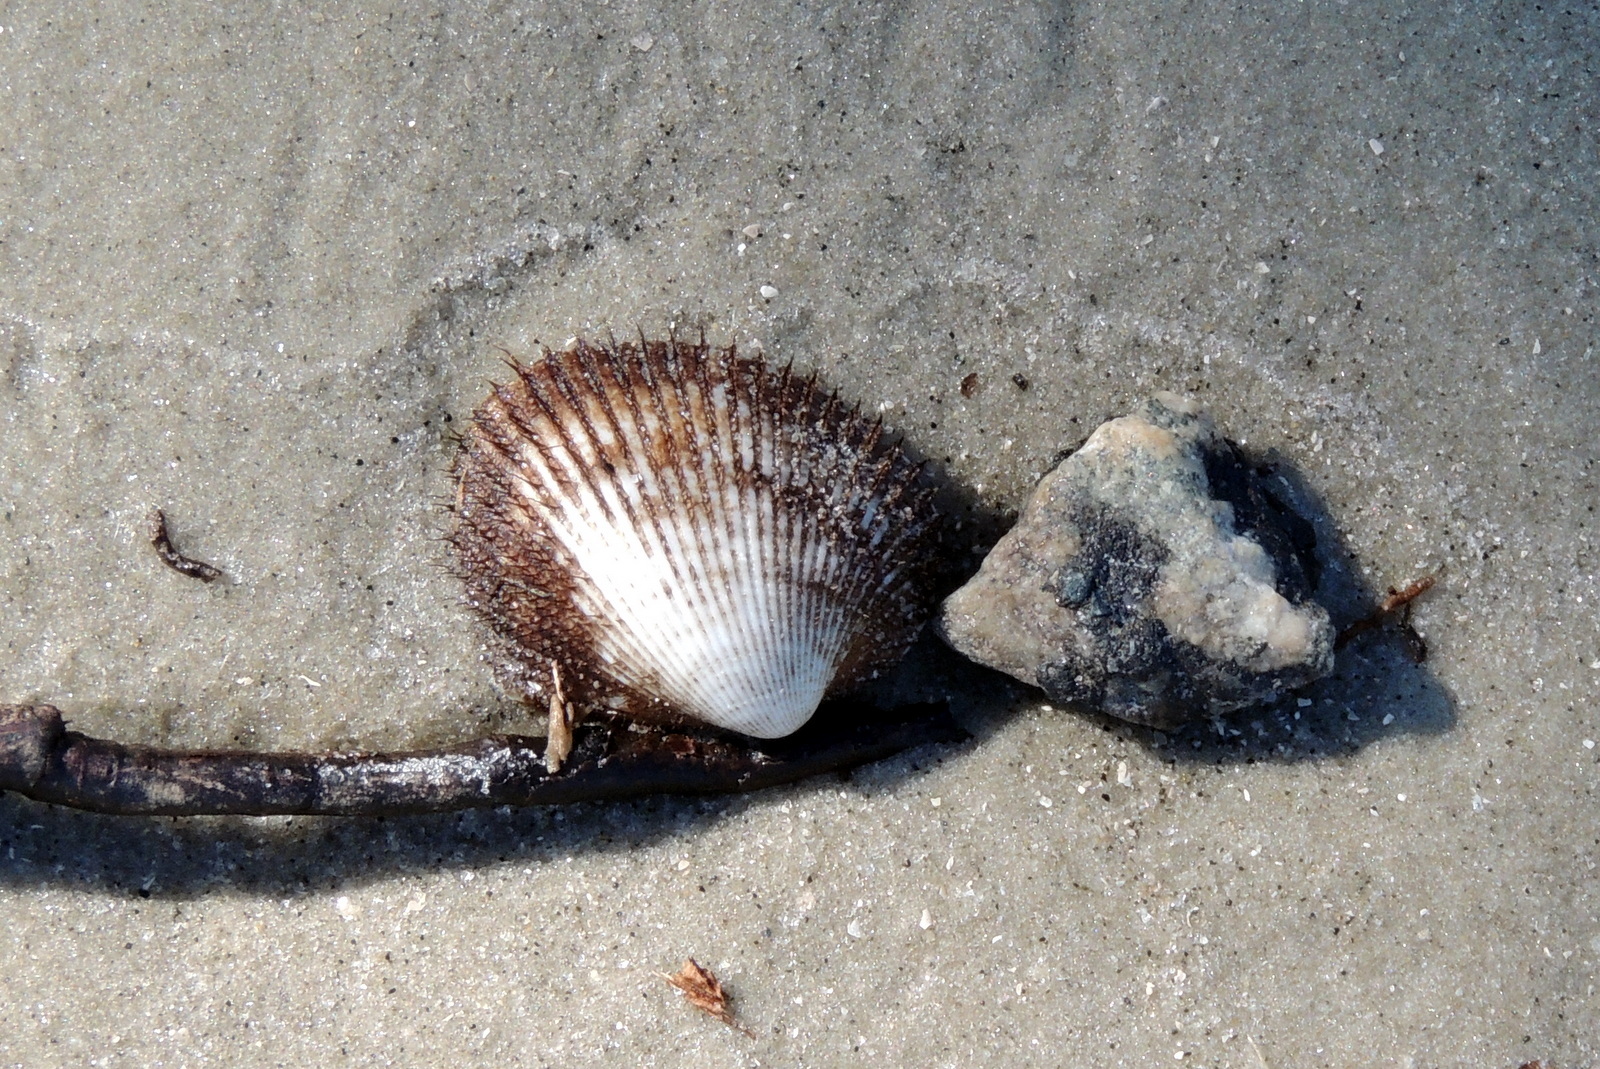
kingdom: Animalia
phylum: Mollusca
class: Bivalvia
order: Arcida
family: Arcidae
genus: Lunarca
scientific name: Lunarca ovalis
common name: Blood ark
